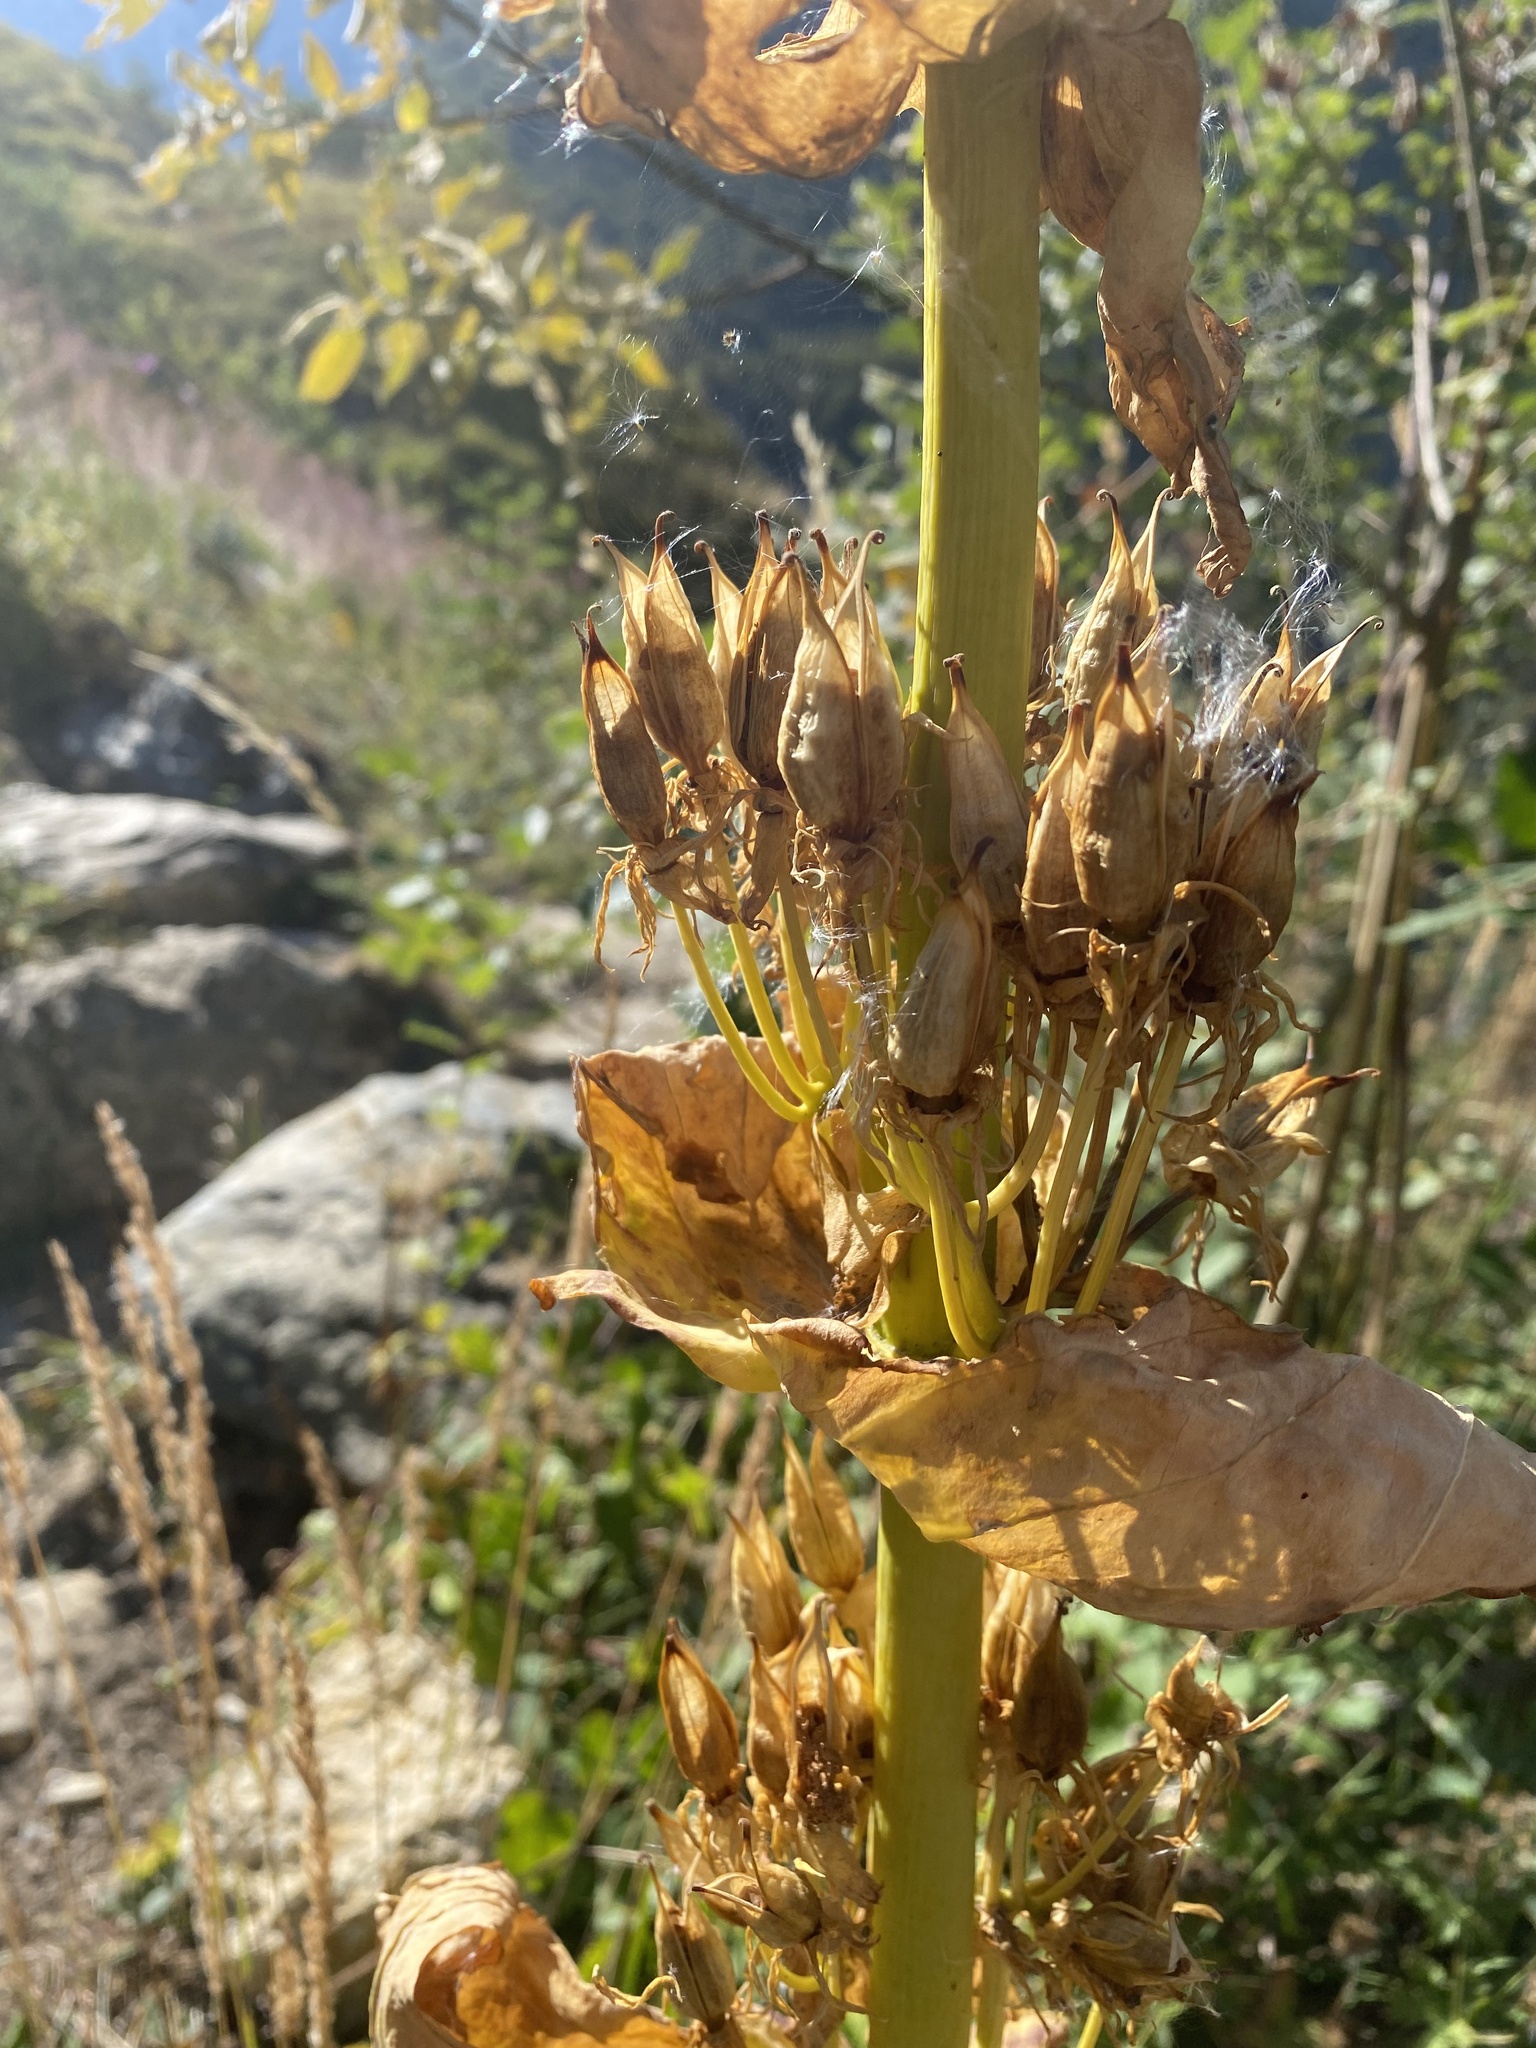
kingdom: Plantae
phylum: Tracheophyta
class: Magnoliopsida
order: Gentianales
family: Gentianaceae
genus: Gentiana
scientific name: Gentiana lutea
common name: Great yellow gentian
